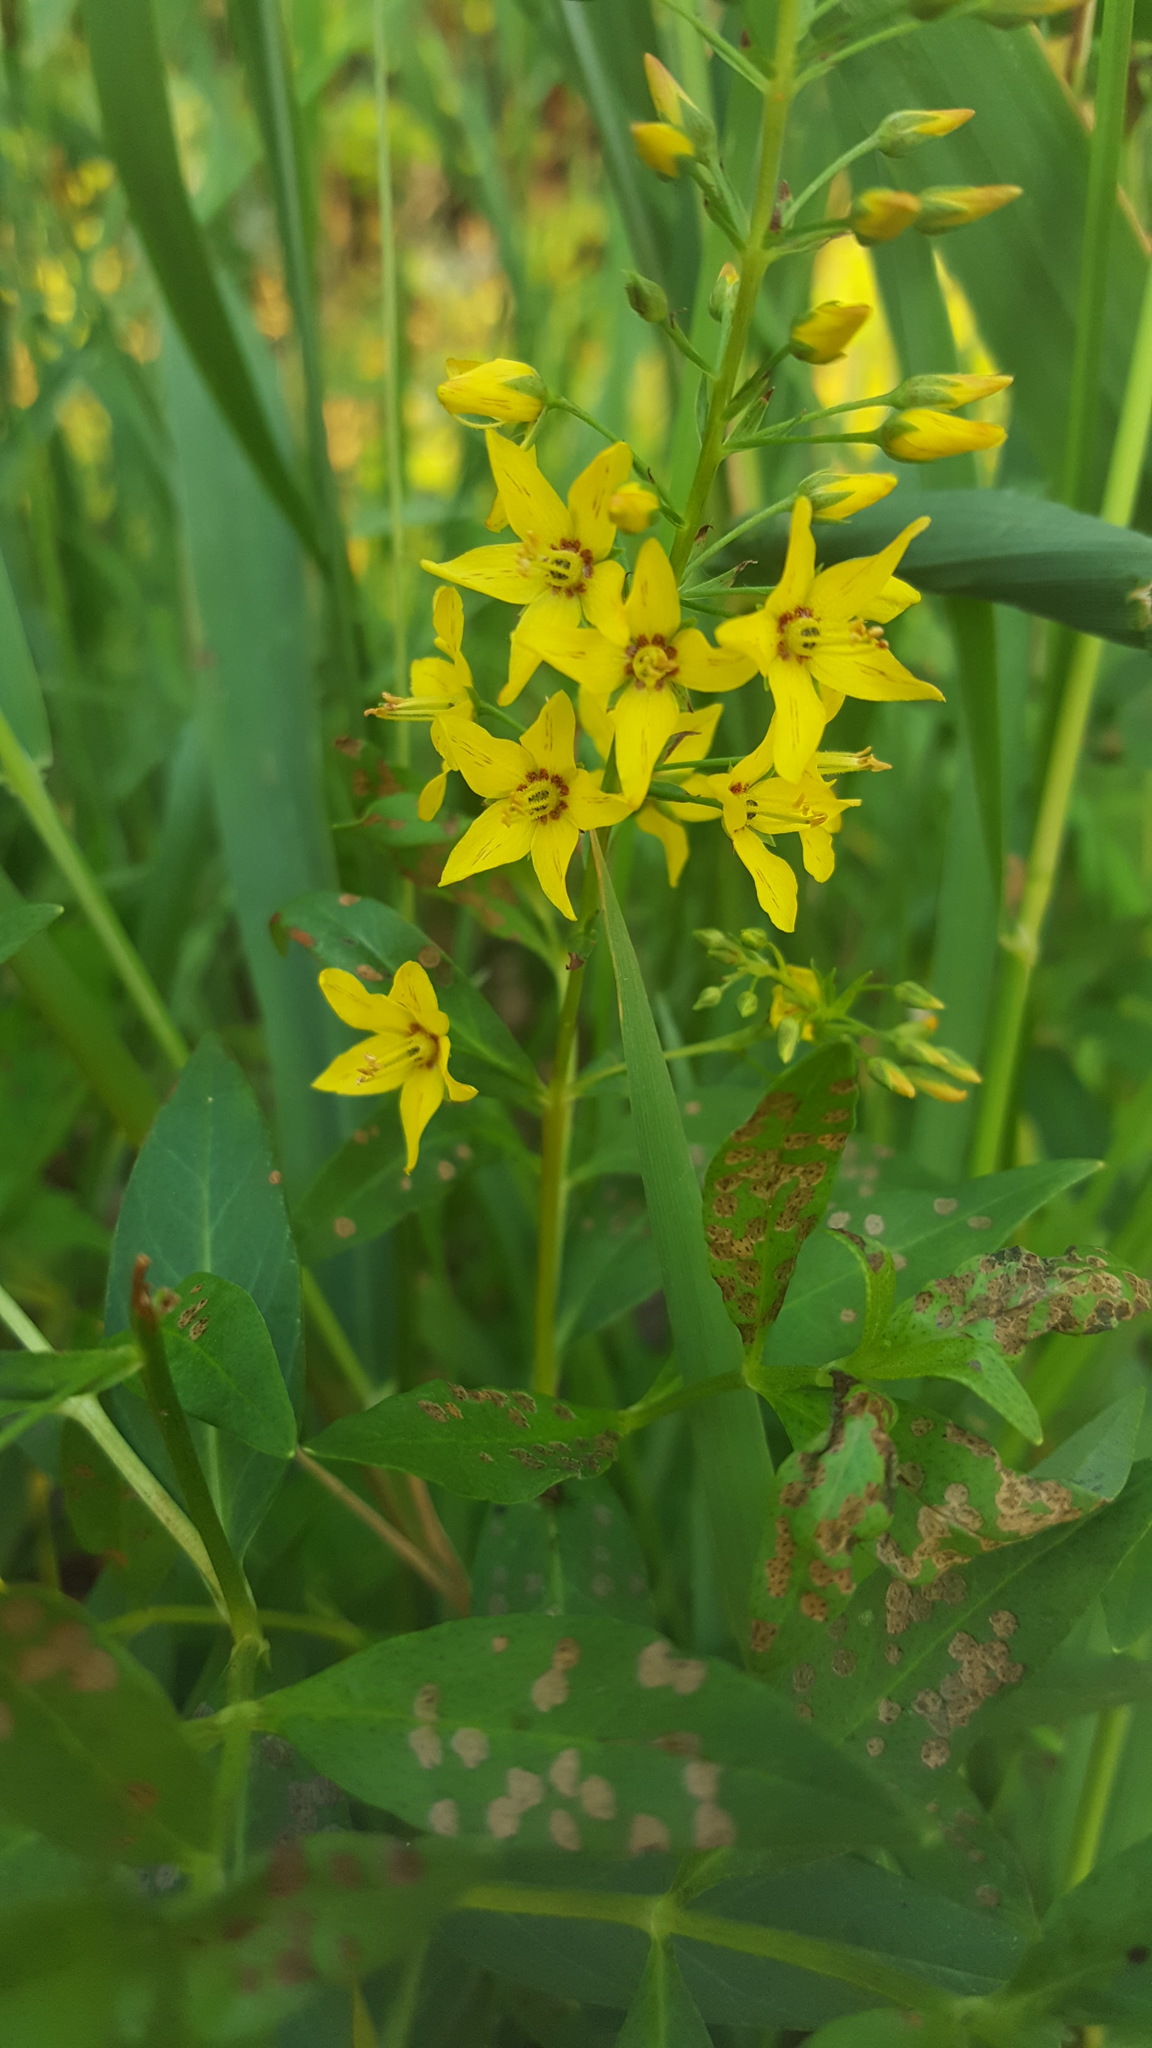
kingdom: Plantae
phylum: Tracheophyta
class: Magnoliopsida
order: Ericales
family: Primulaceae
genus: Lysimachia
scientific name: Lysimachia terrestris
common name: Lake loosestrife
